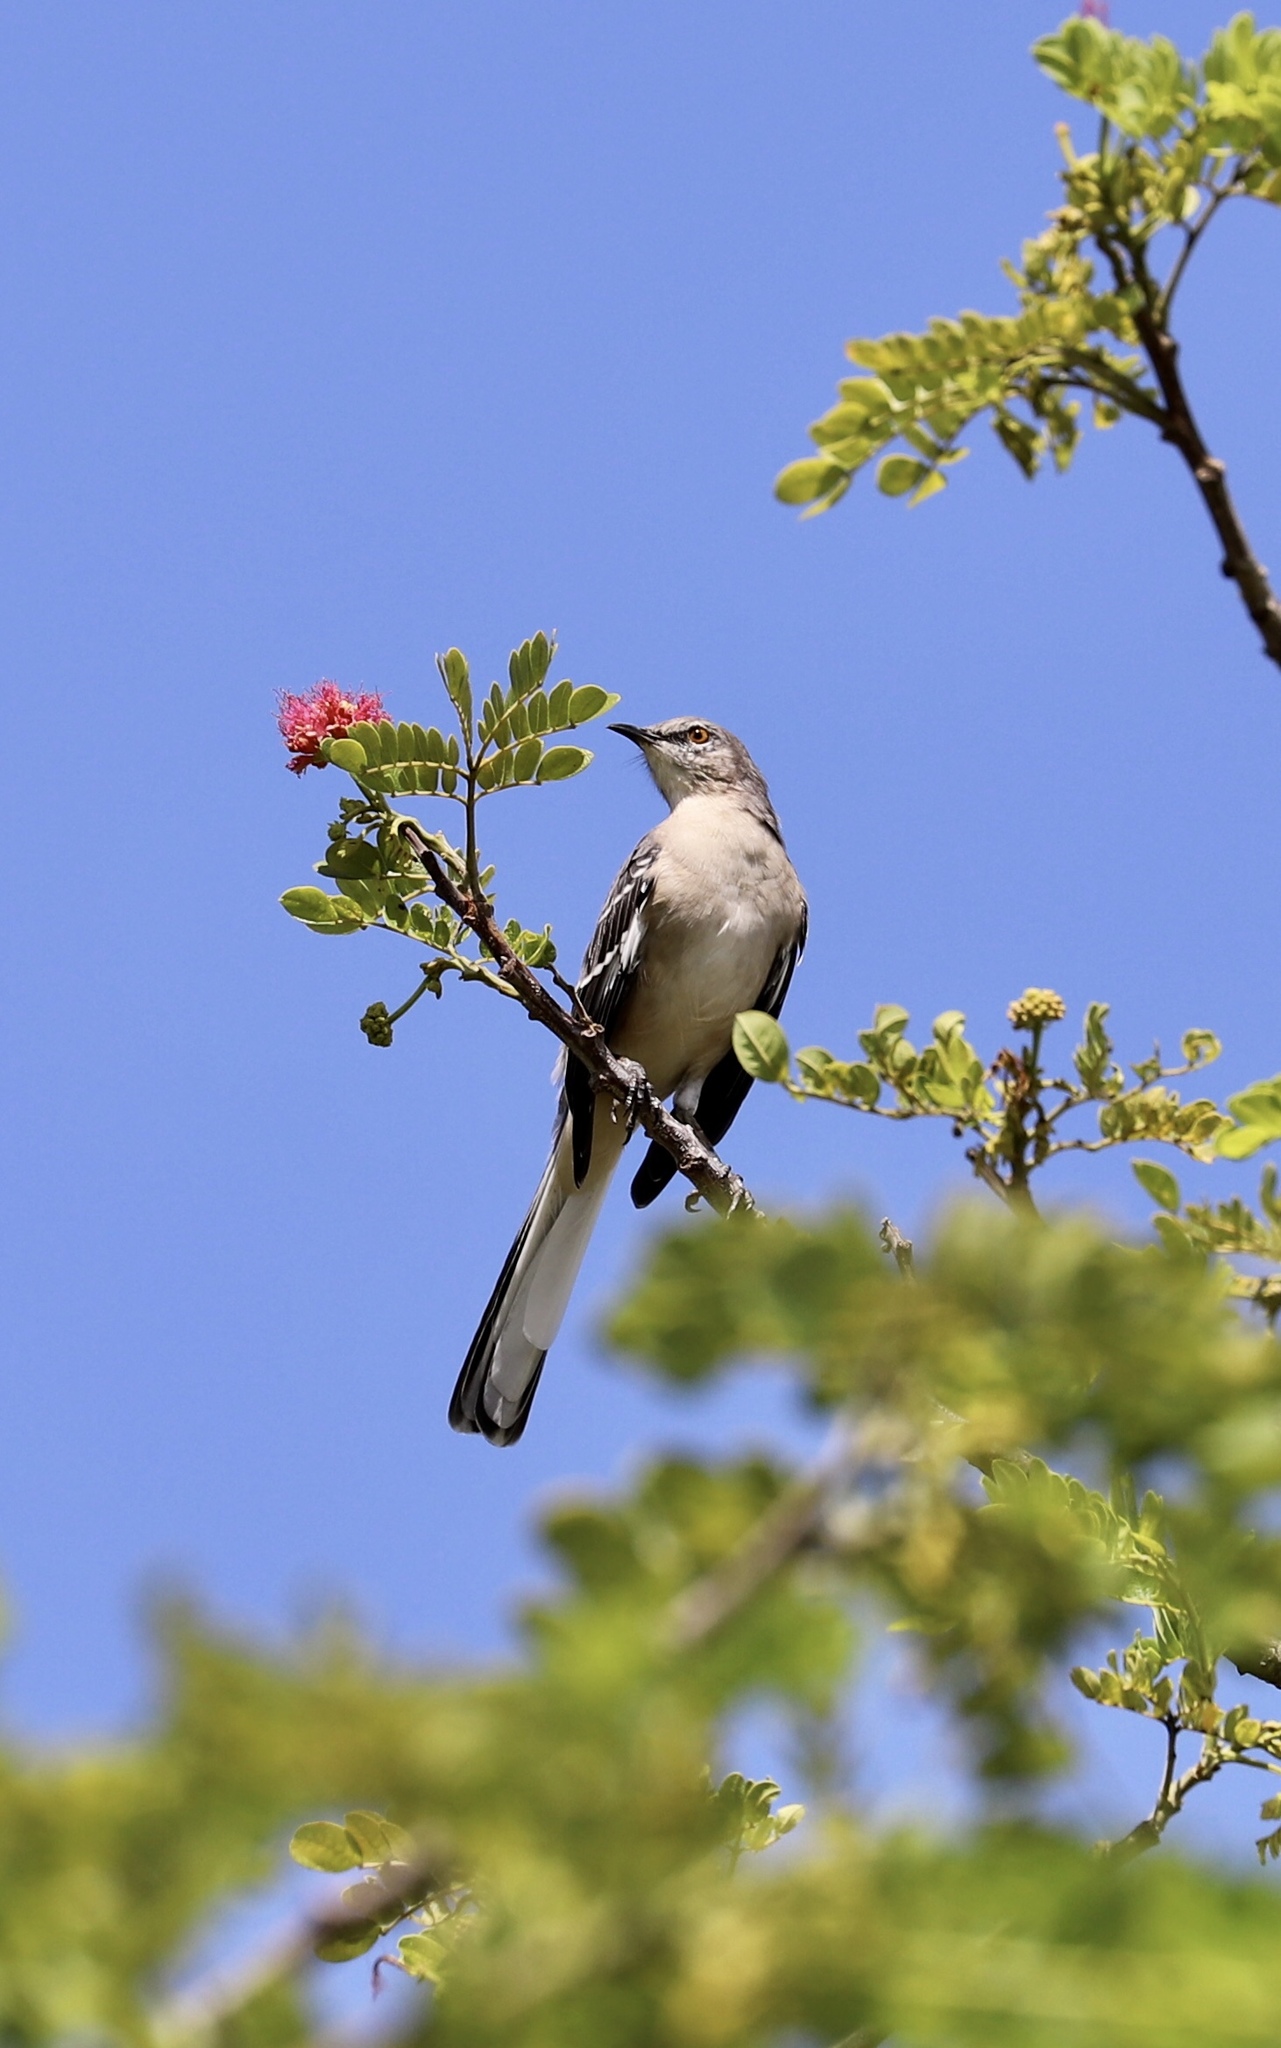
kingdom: Animalia
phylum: Chordata
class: Aves
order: Passeriformes
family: Mimidae
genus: Mimus
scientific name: Mimus polyglottos
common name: Northern mockingbird
